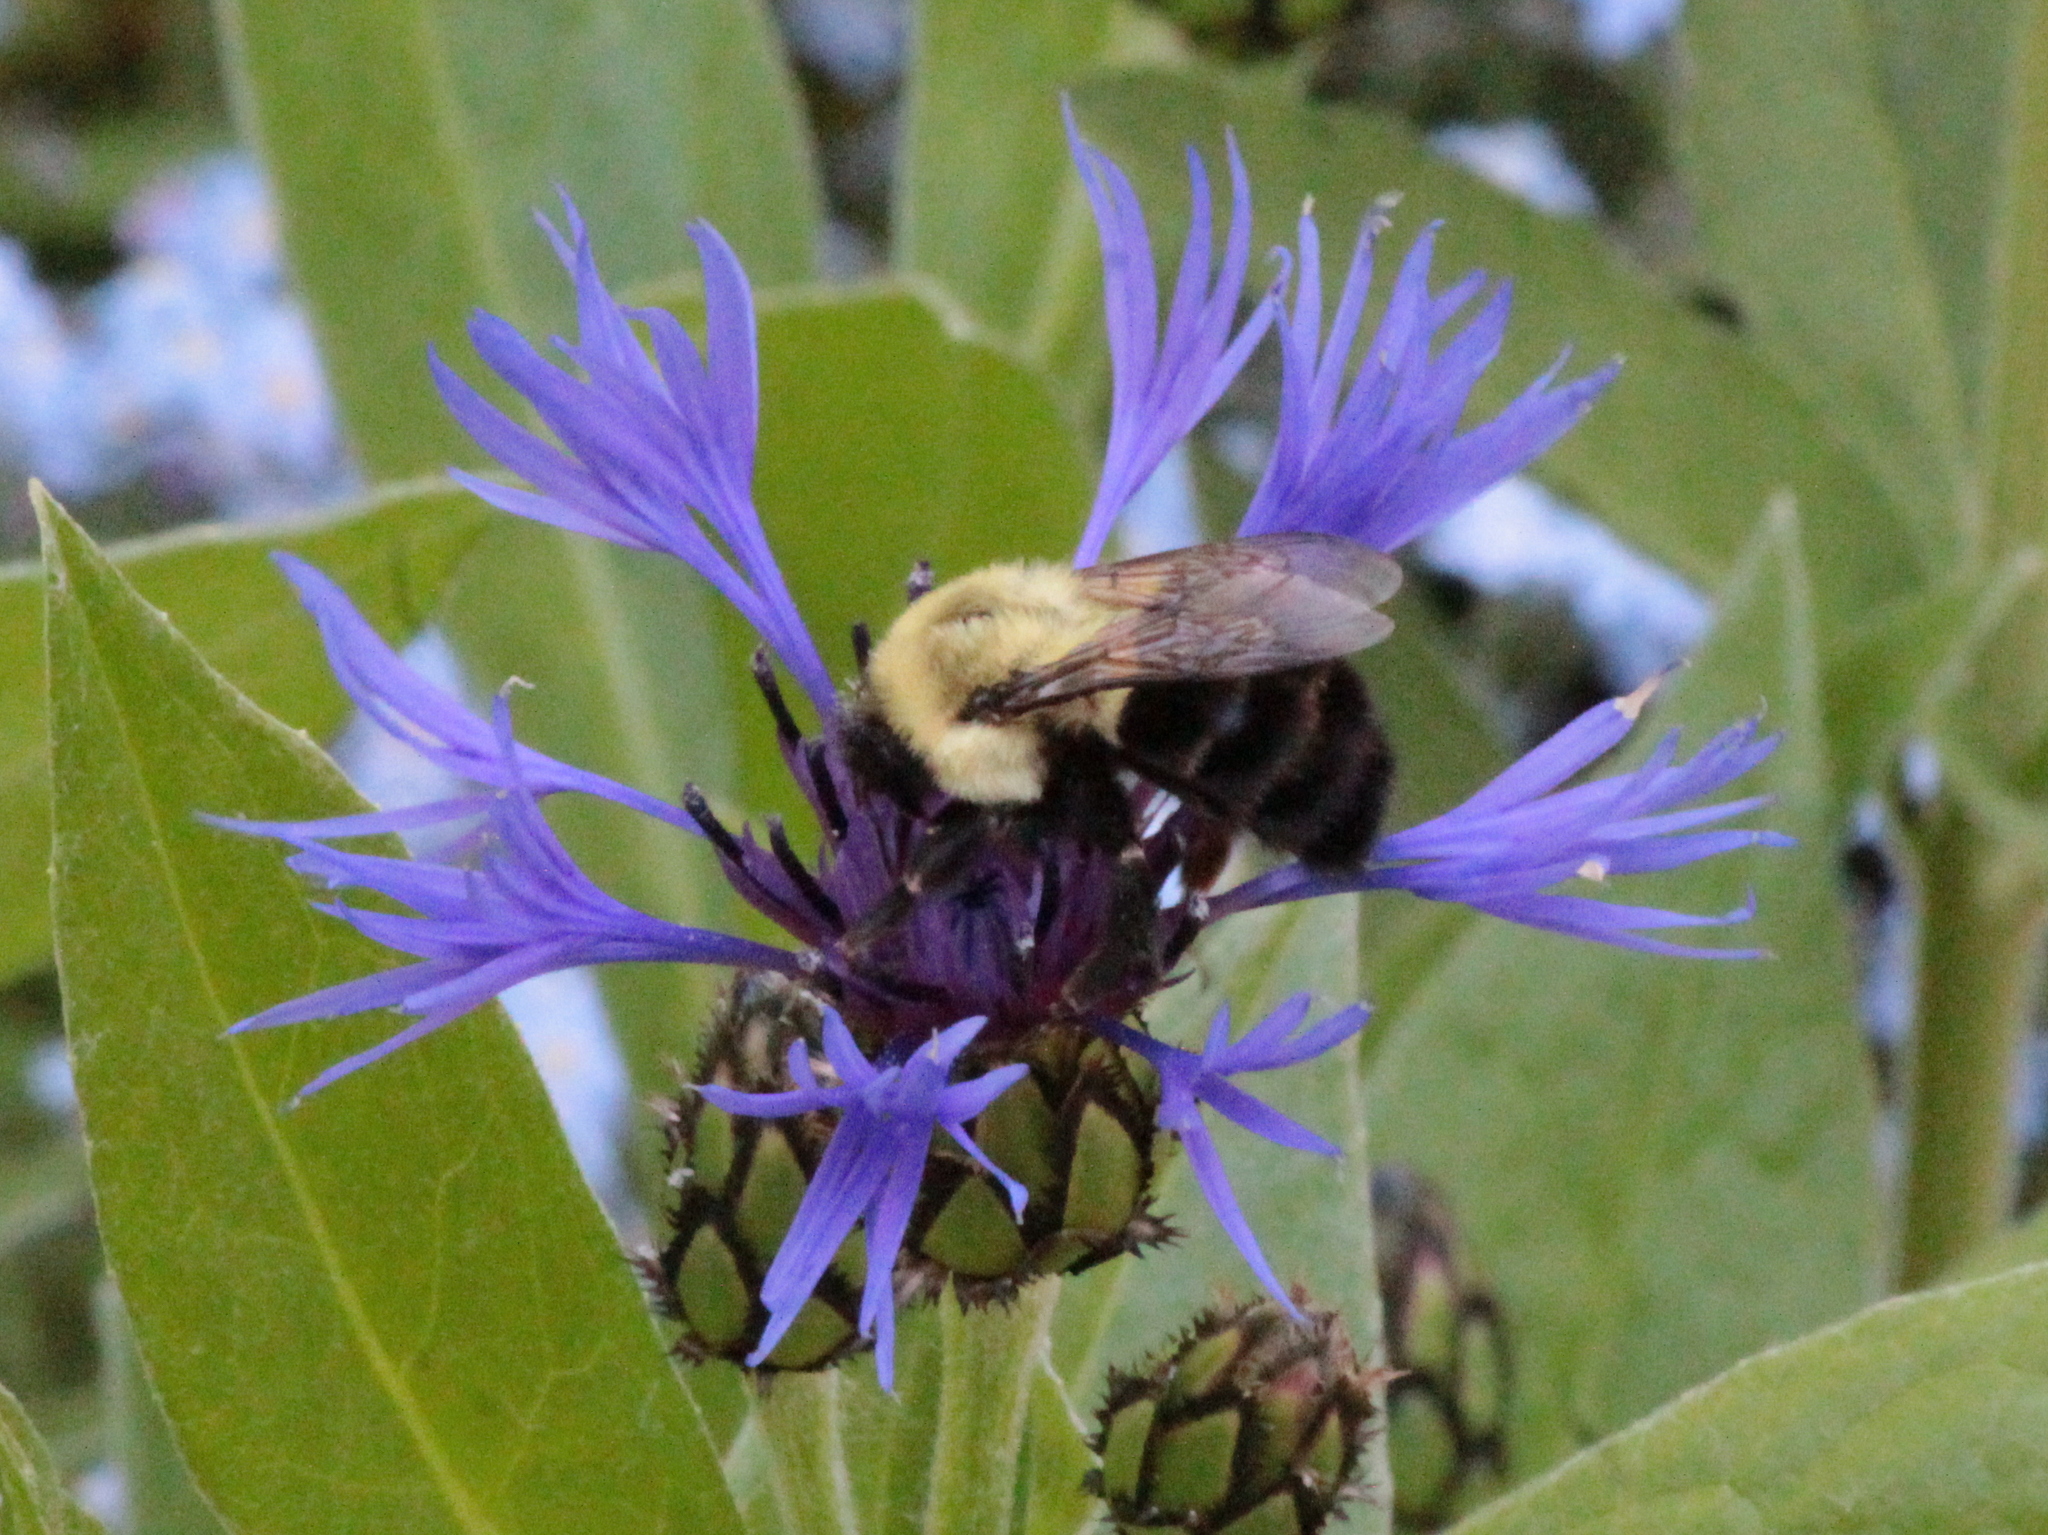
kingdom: Animalia
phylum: Arthropoda
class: Insecta
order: Hymenoptera
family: Apidae
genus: Bombus
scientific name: Bombus impatiens
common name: Common eastern bumble bee
